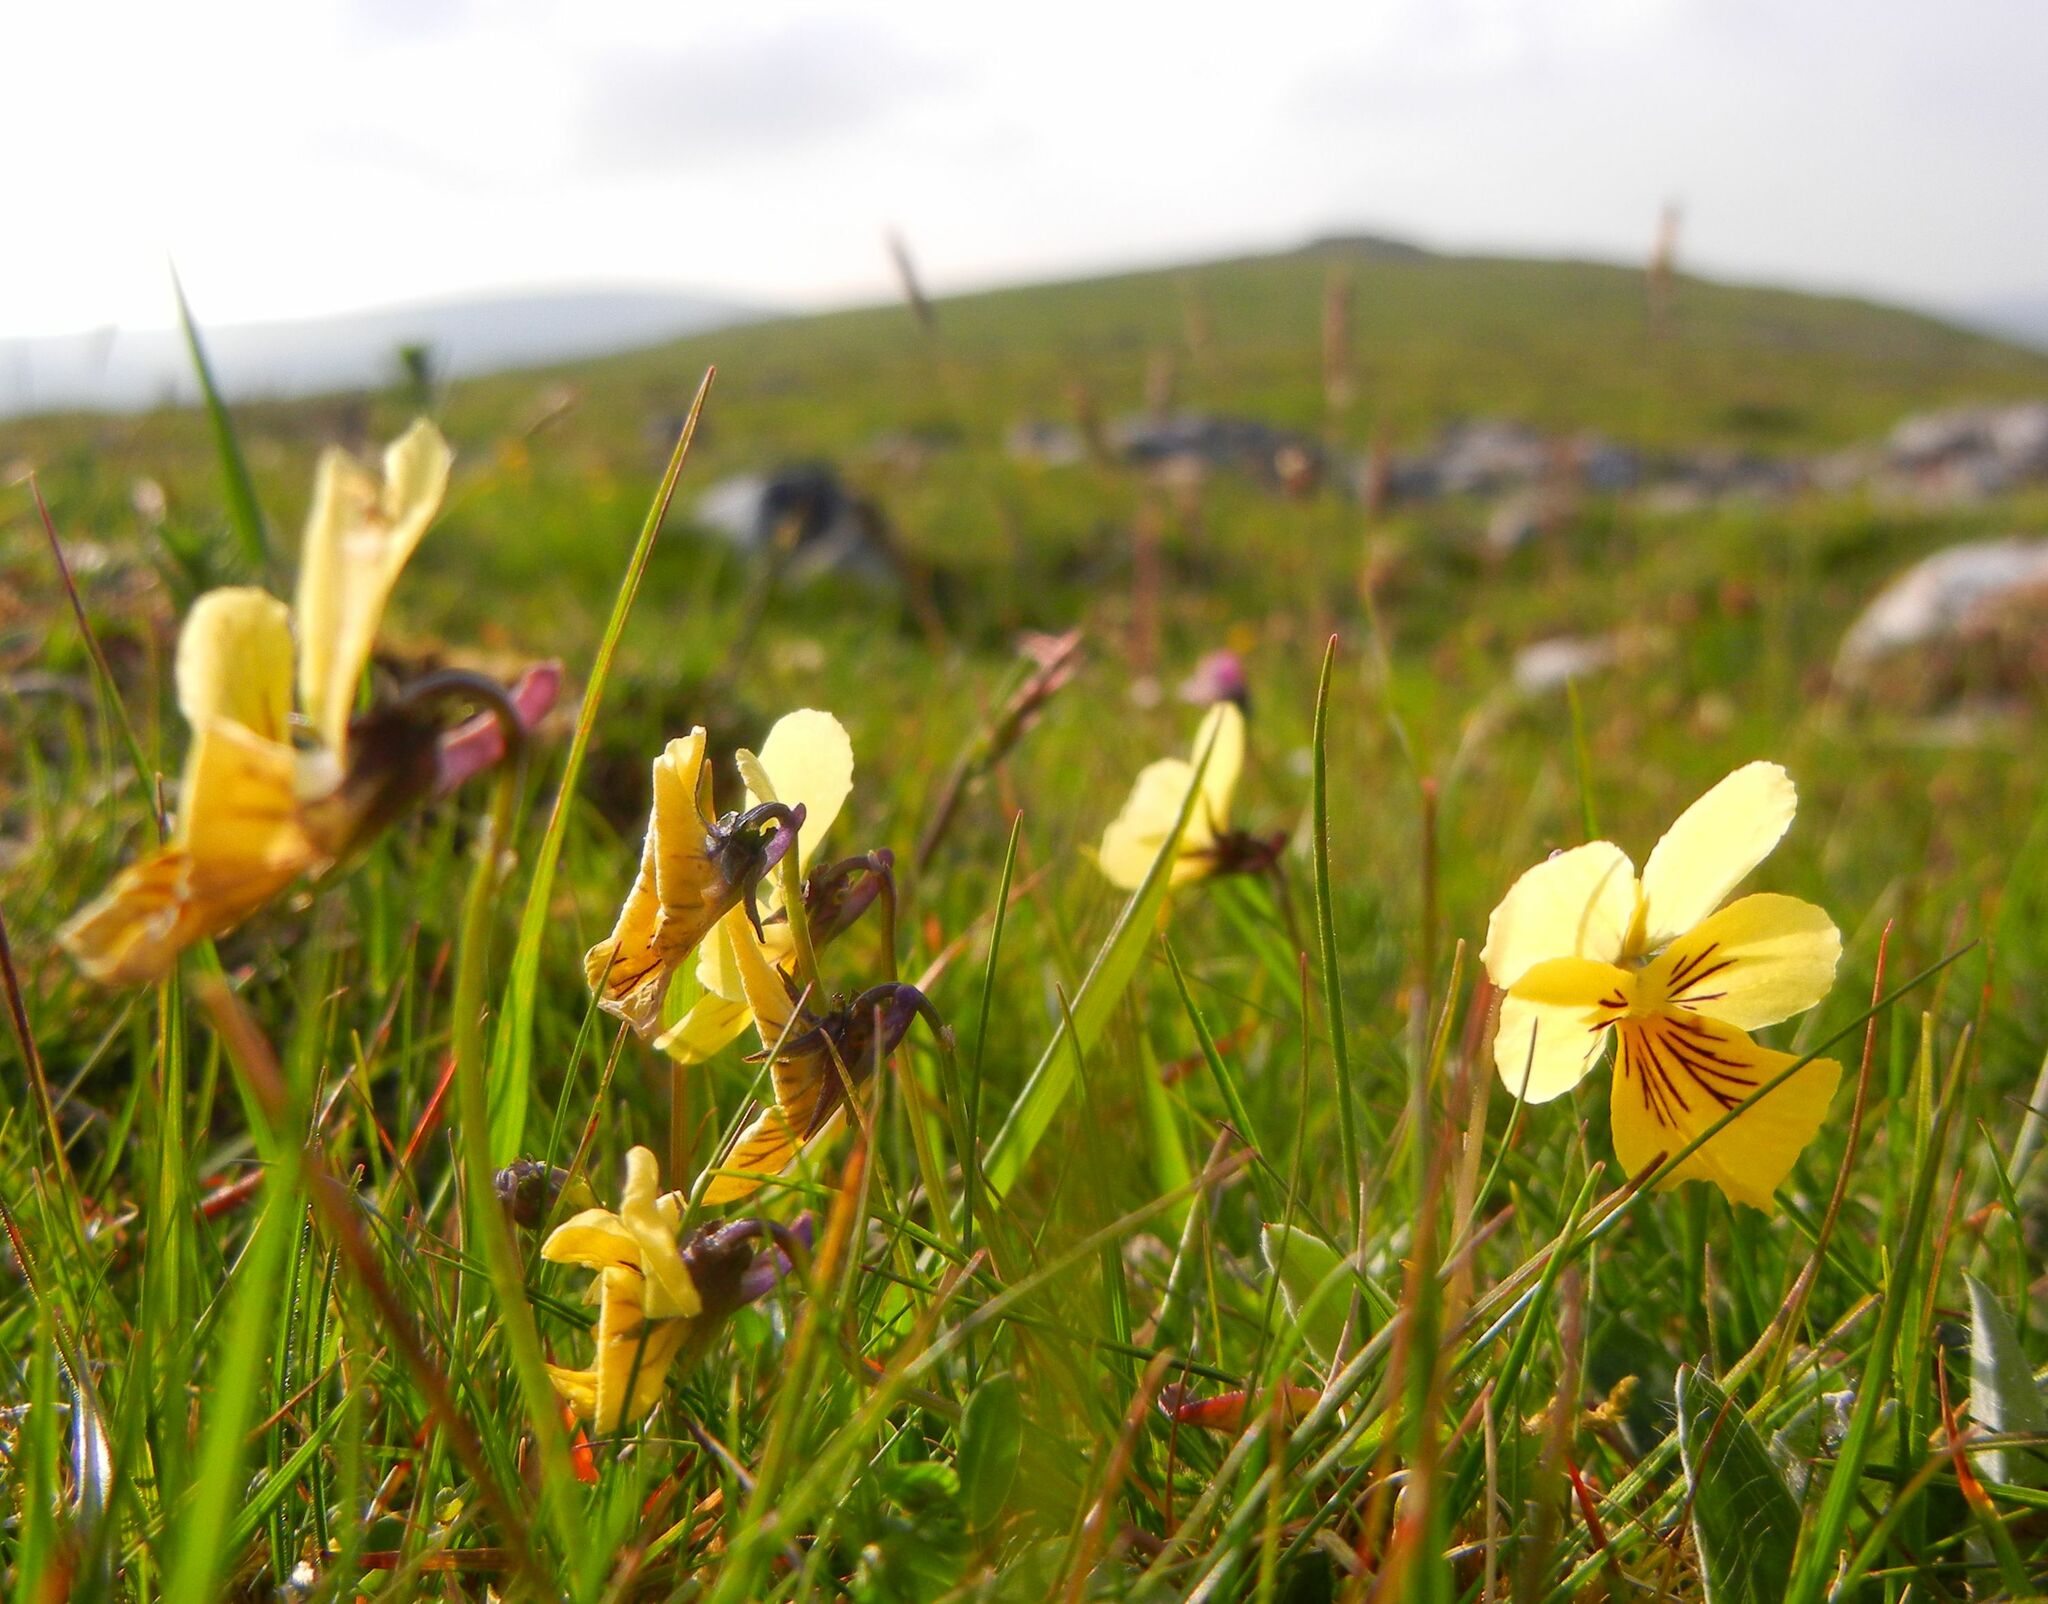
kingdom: Plantae
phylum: Tracheophyta
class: Magnoliopsida
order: Malpighiales
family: Violaceae
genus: Viola
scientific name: Viola lutea
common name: Mountain pansy
